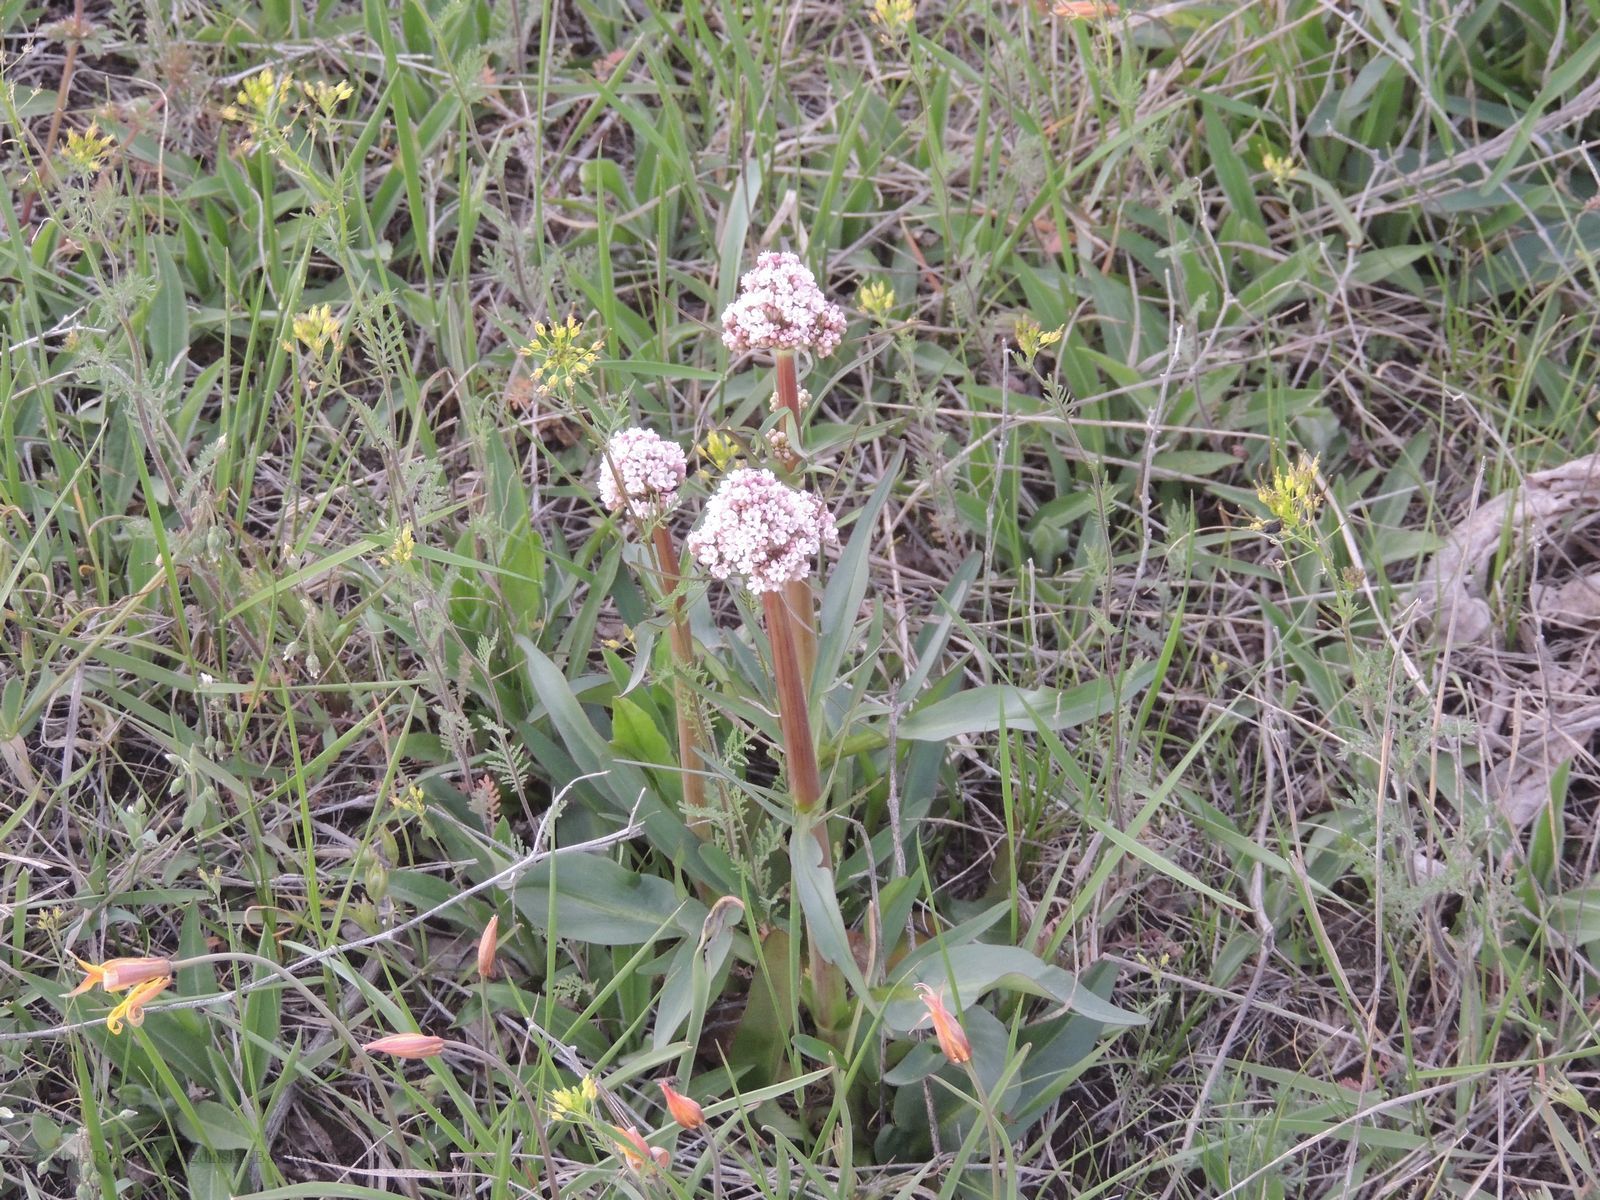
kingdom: Plantae
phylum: Tracheophyta
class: Magnoliopsida
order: Dipsacales
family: Caprifoliaceae
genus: Valeriana
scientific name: Valeriana tuberosa
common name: Tuberous valerian
